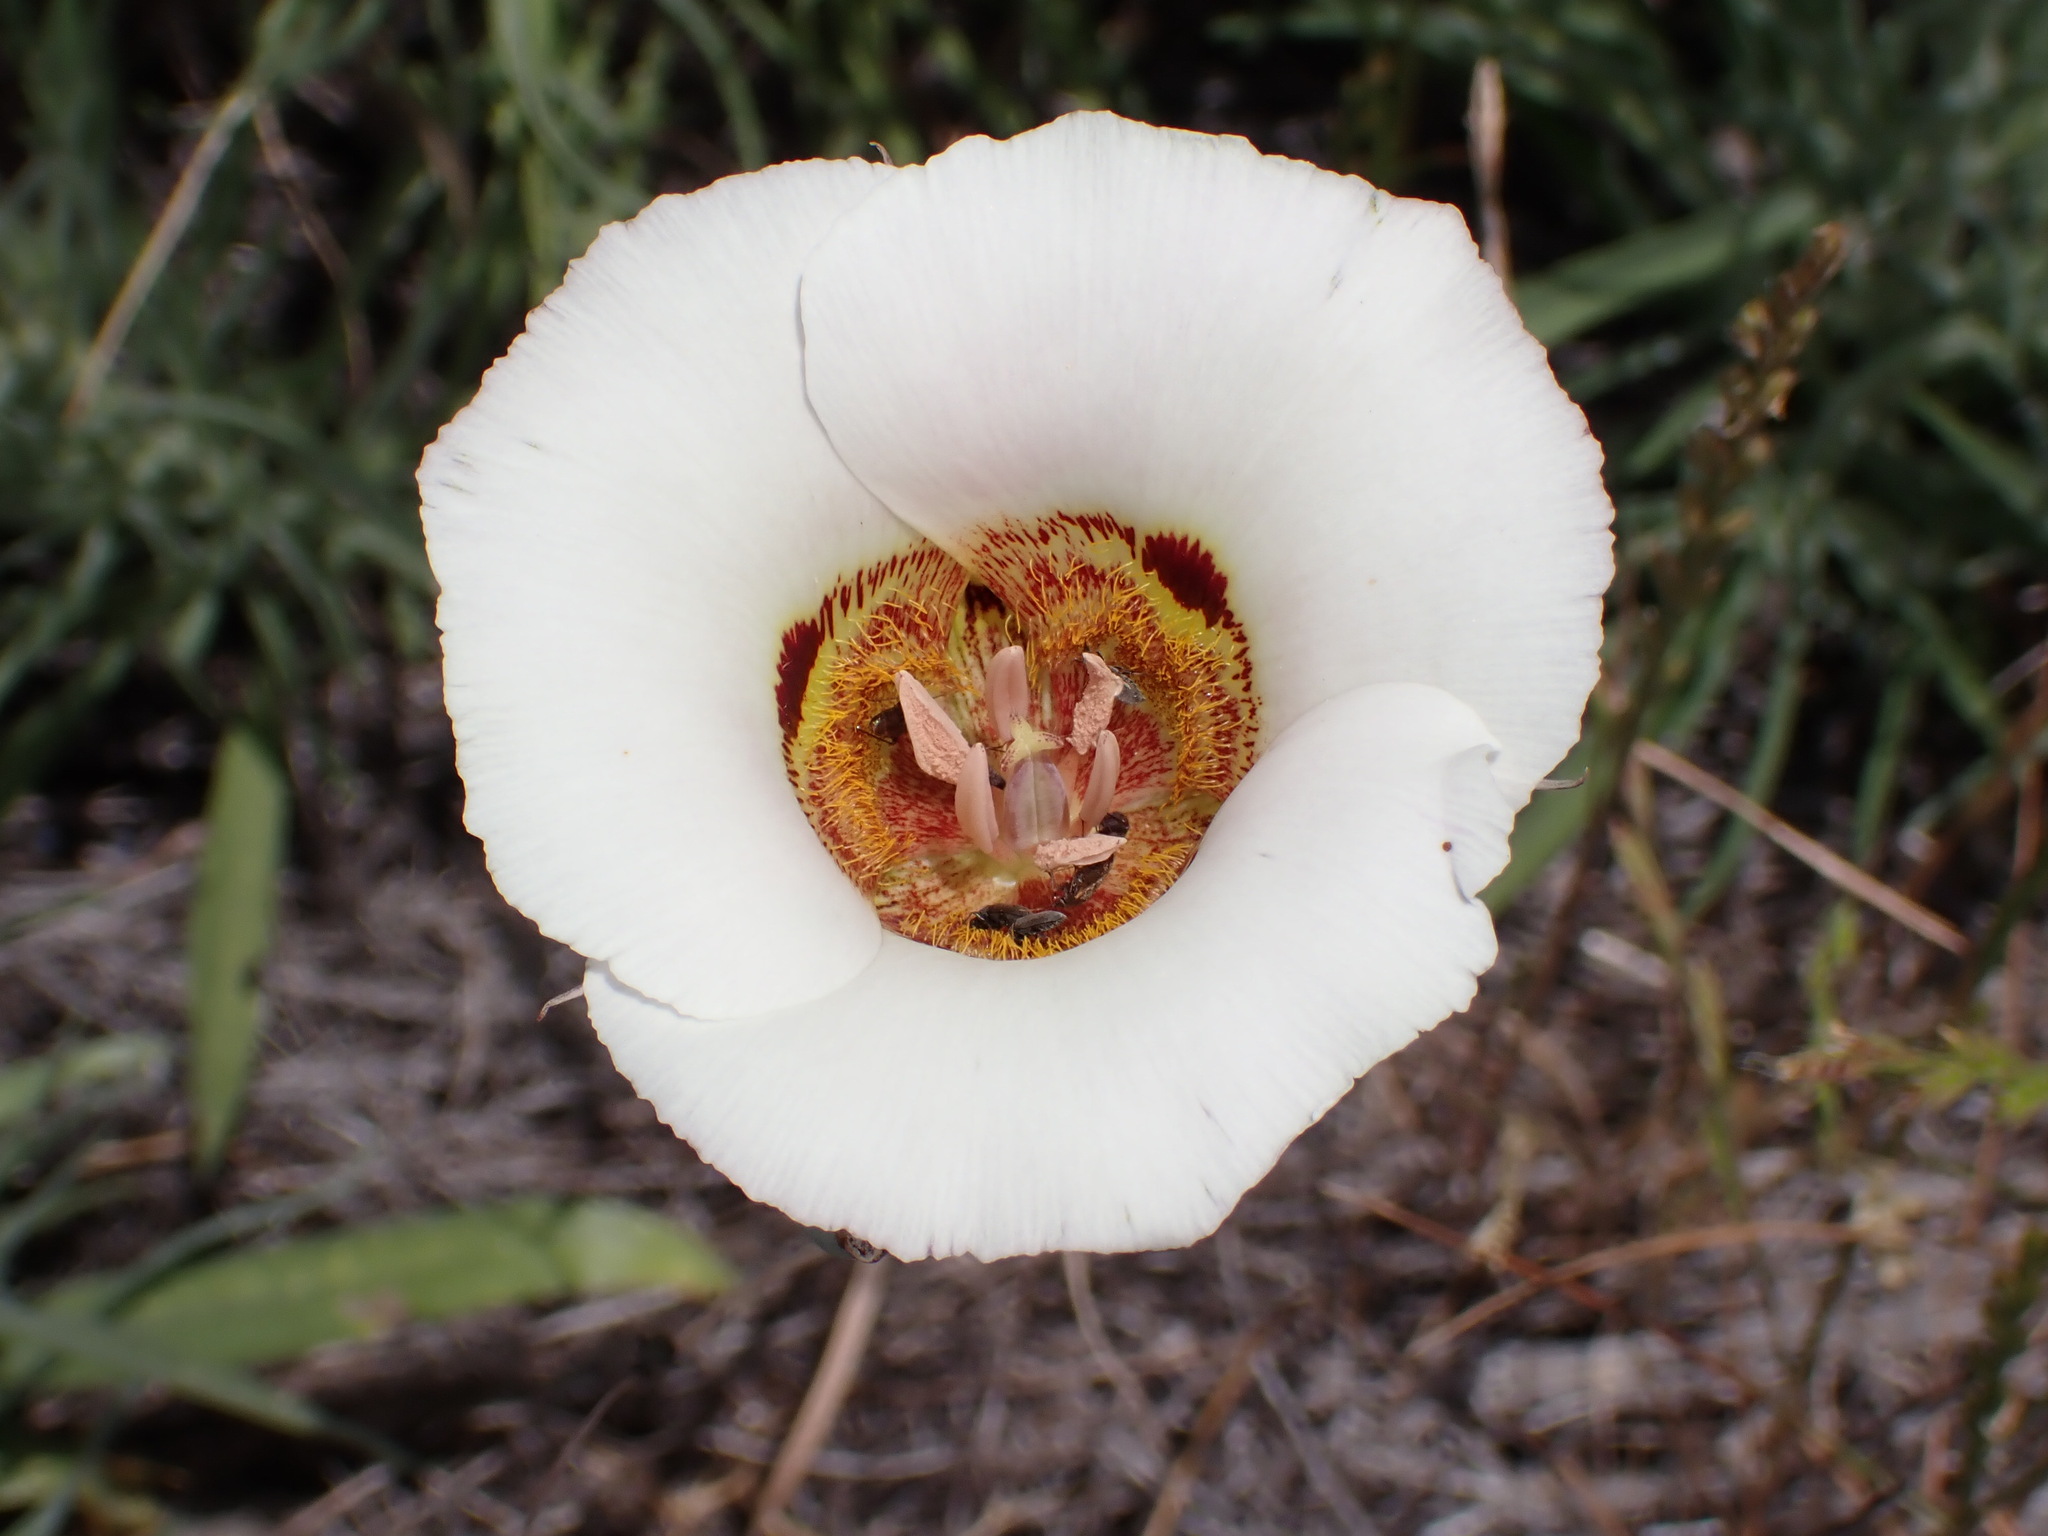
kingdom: Plantae
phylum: Tracheophyta
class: Liliopsida
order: Liliales
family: Liliaceae
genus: Calochortus
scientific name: Calochortus vestae
